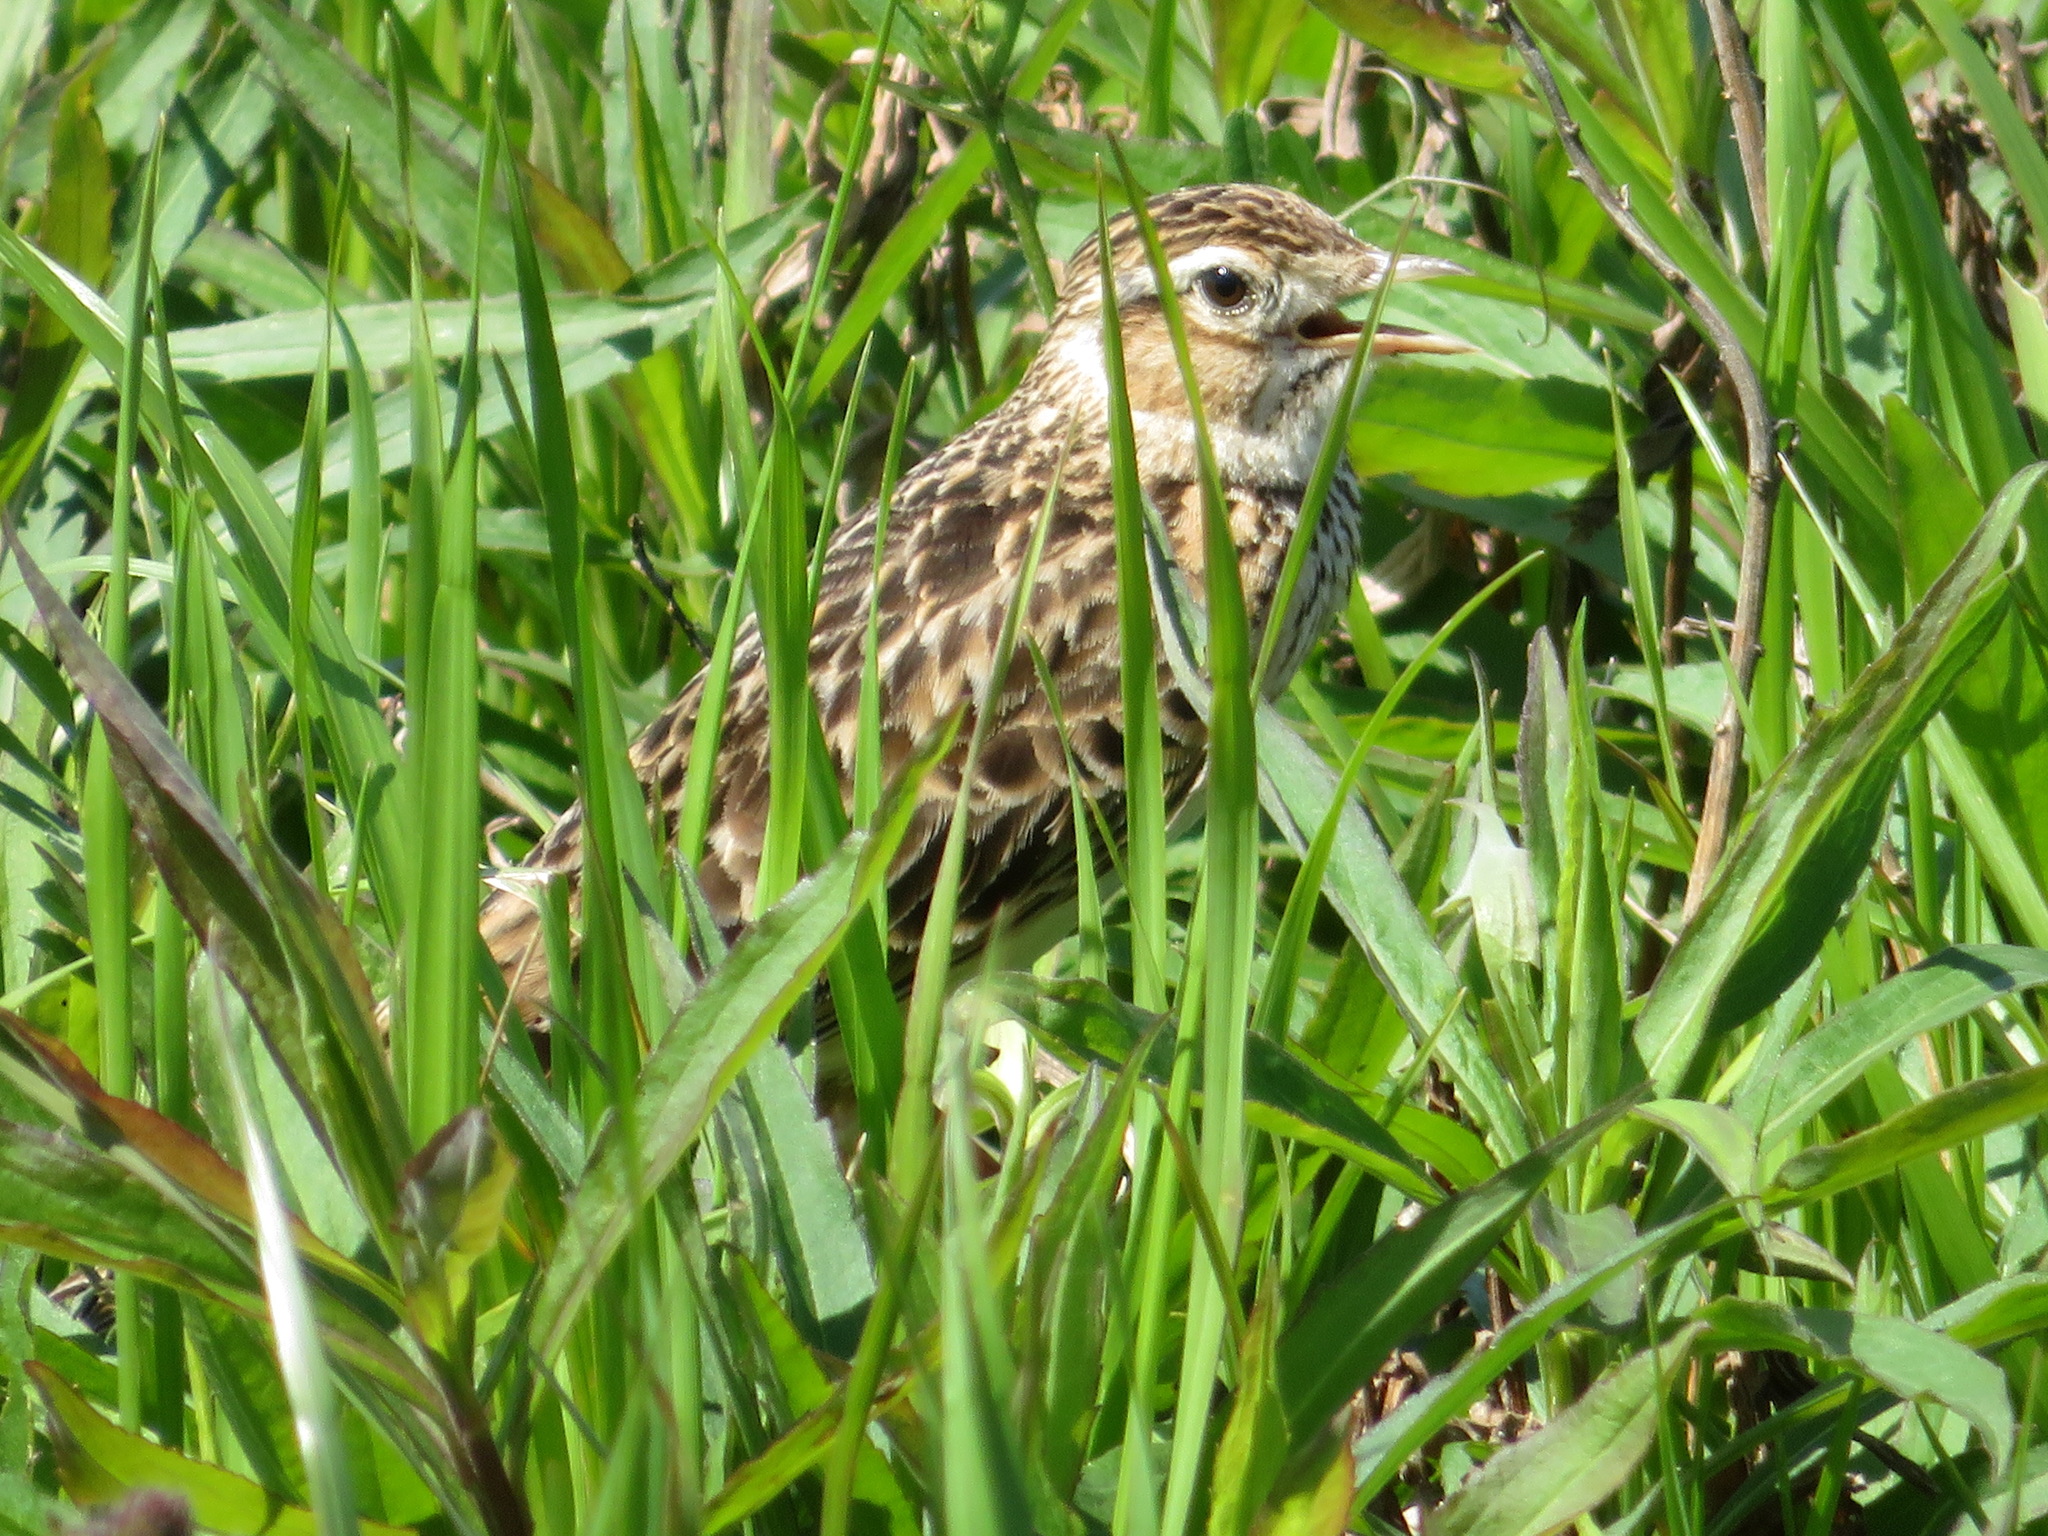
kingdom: Animalia
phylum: Chordata
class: Aves
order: Passeriformes
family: Alaudidae
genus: Alauda
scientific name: Alauda arvensis
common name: Eurasian skylark
